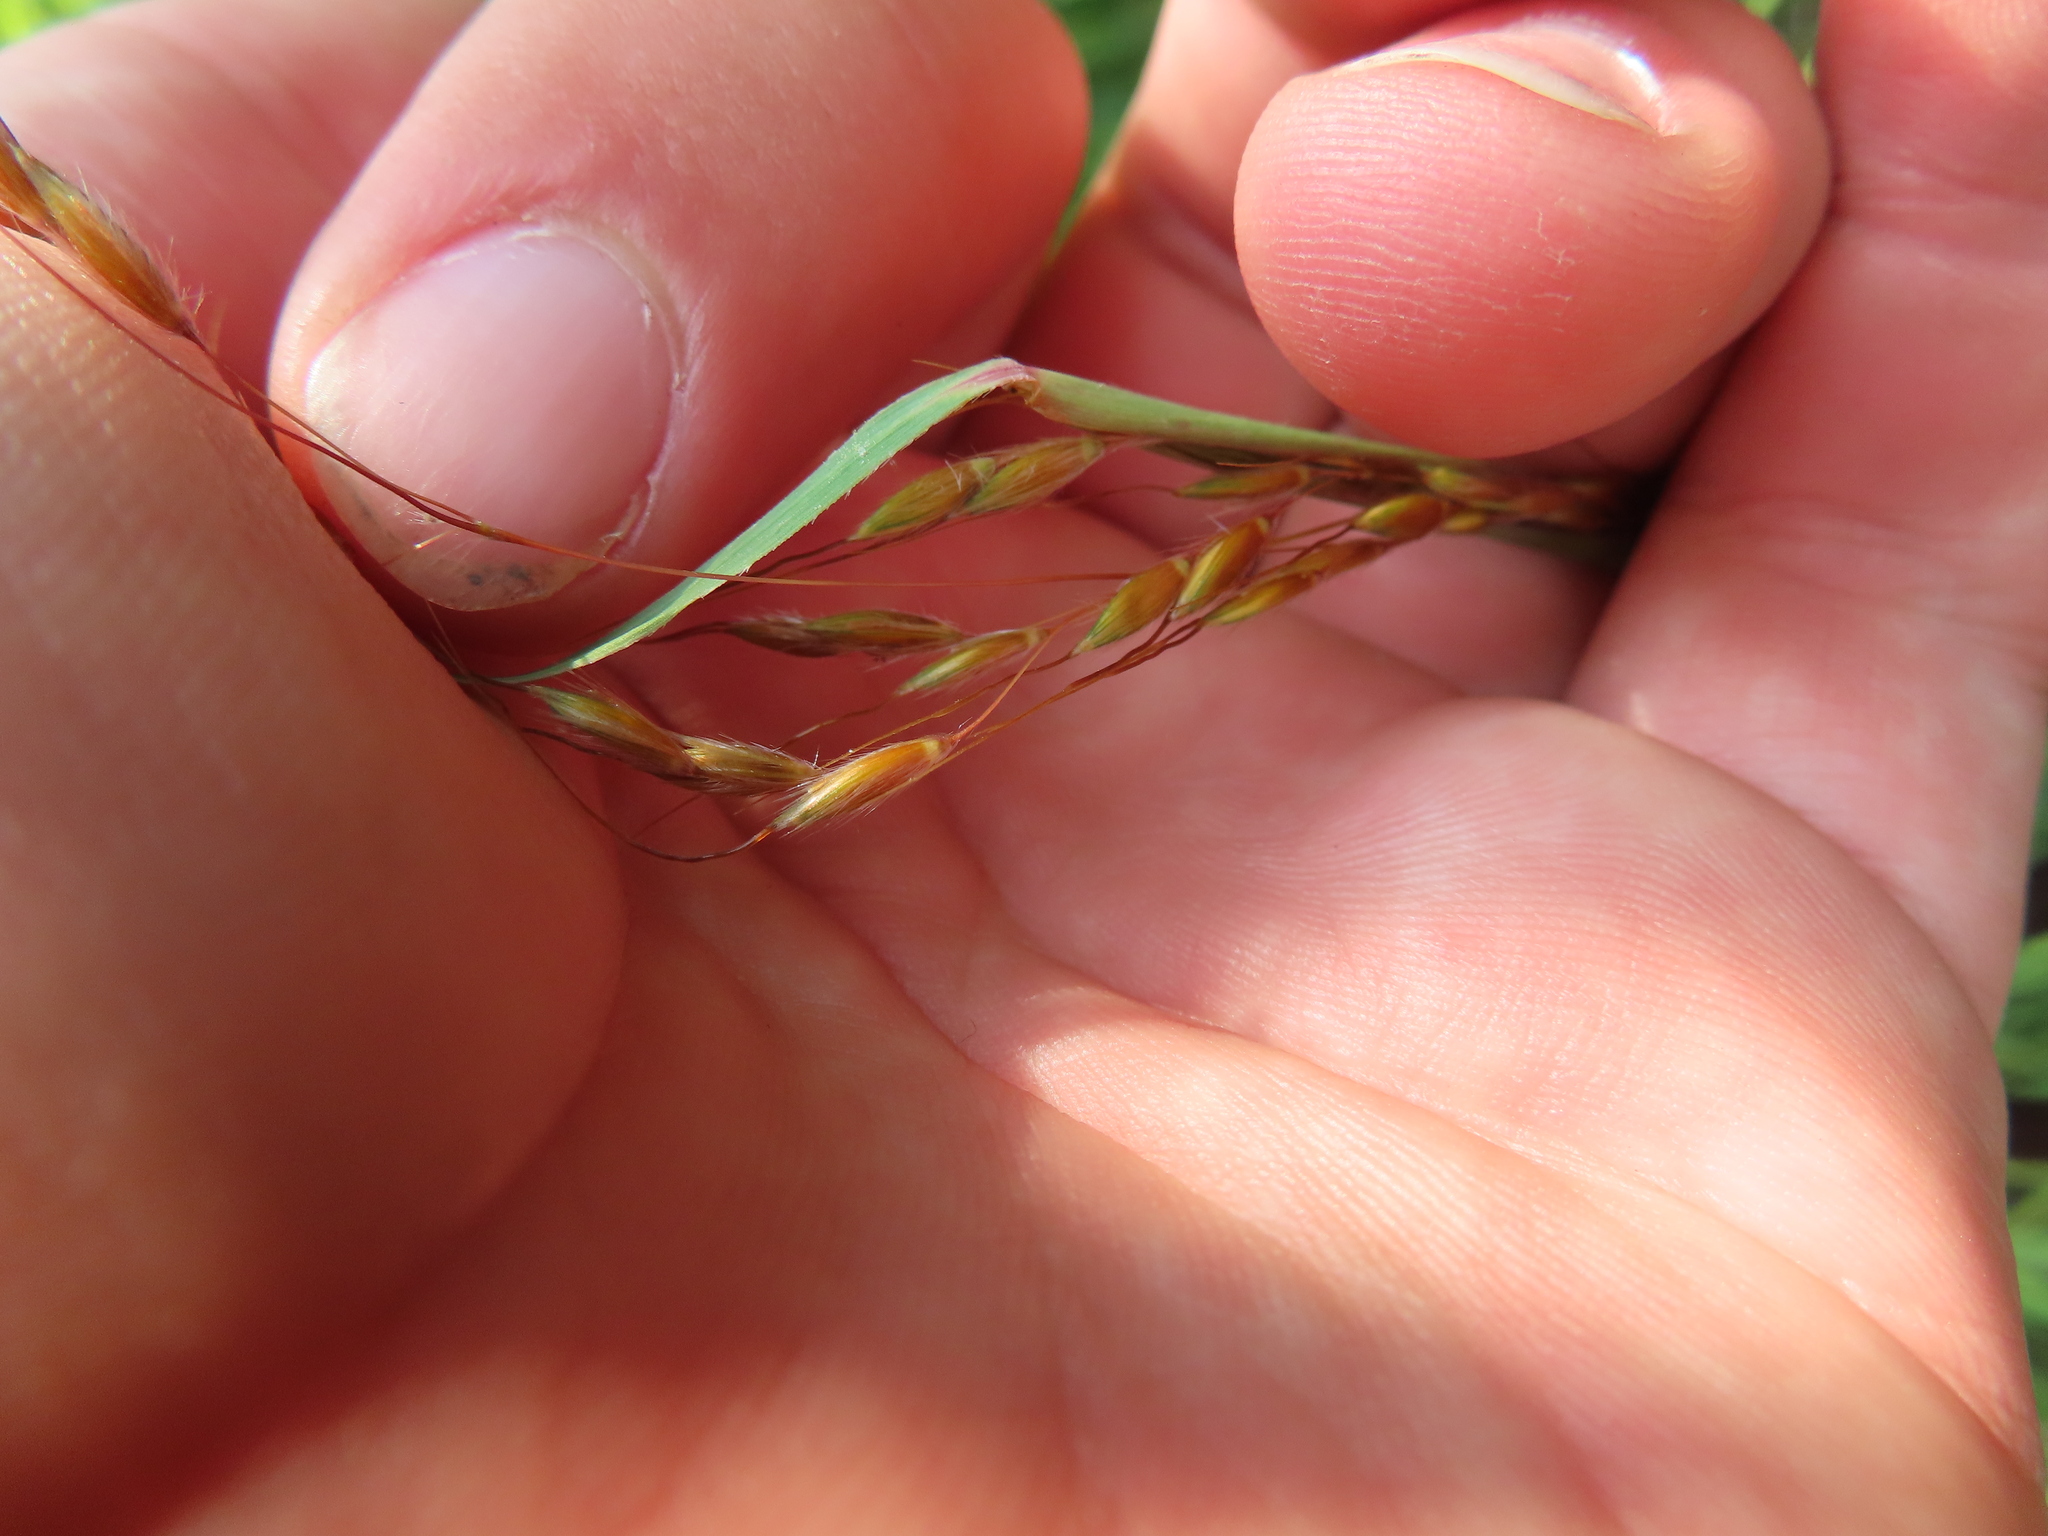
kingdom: Plantae
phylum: Tracheophyta
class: Liliopsida
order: Poales
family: Poaceae
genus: Sorghastrum
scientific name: Sorghastrum nutans
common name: Indian grass
